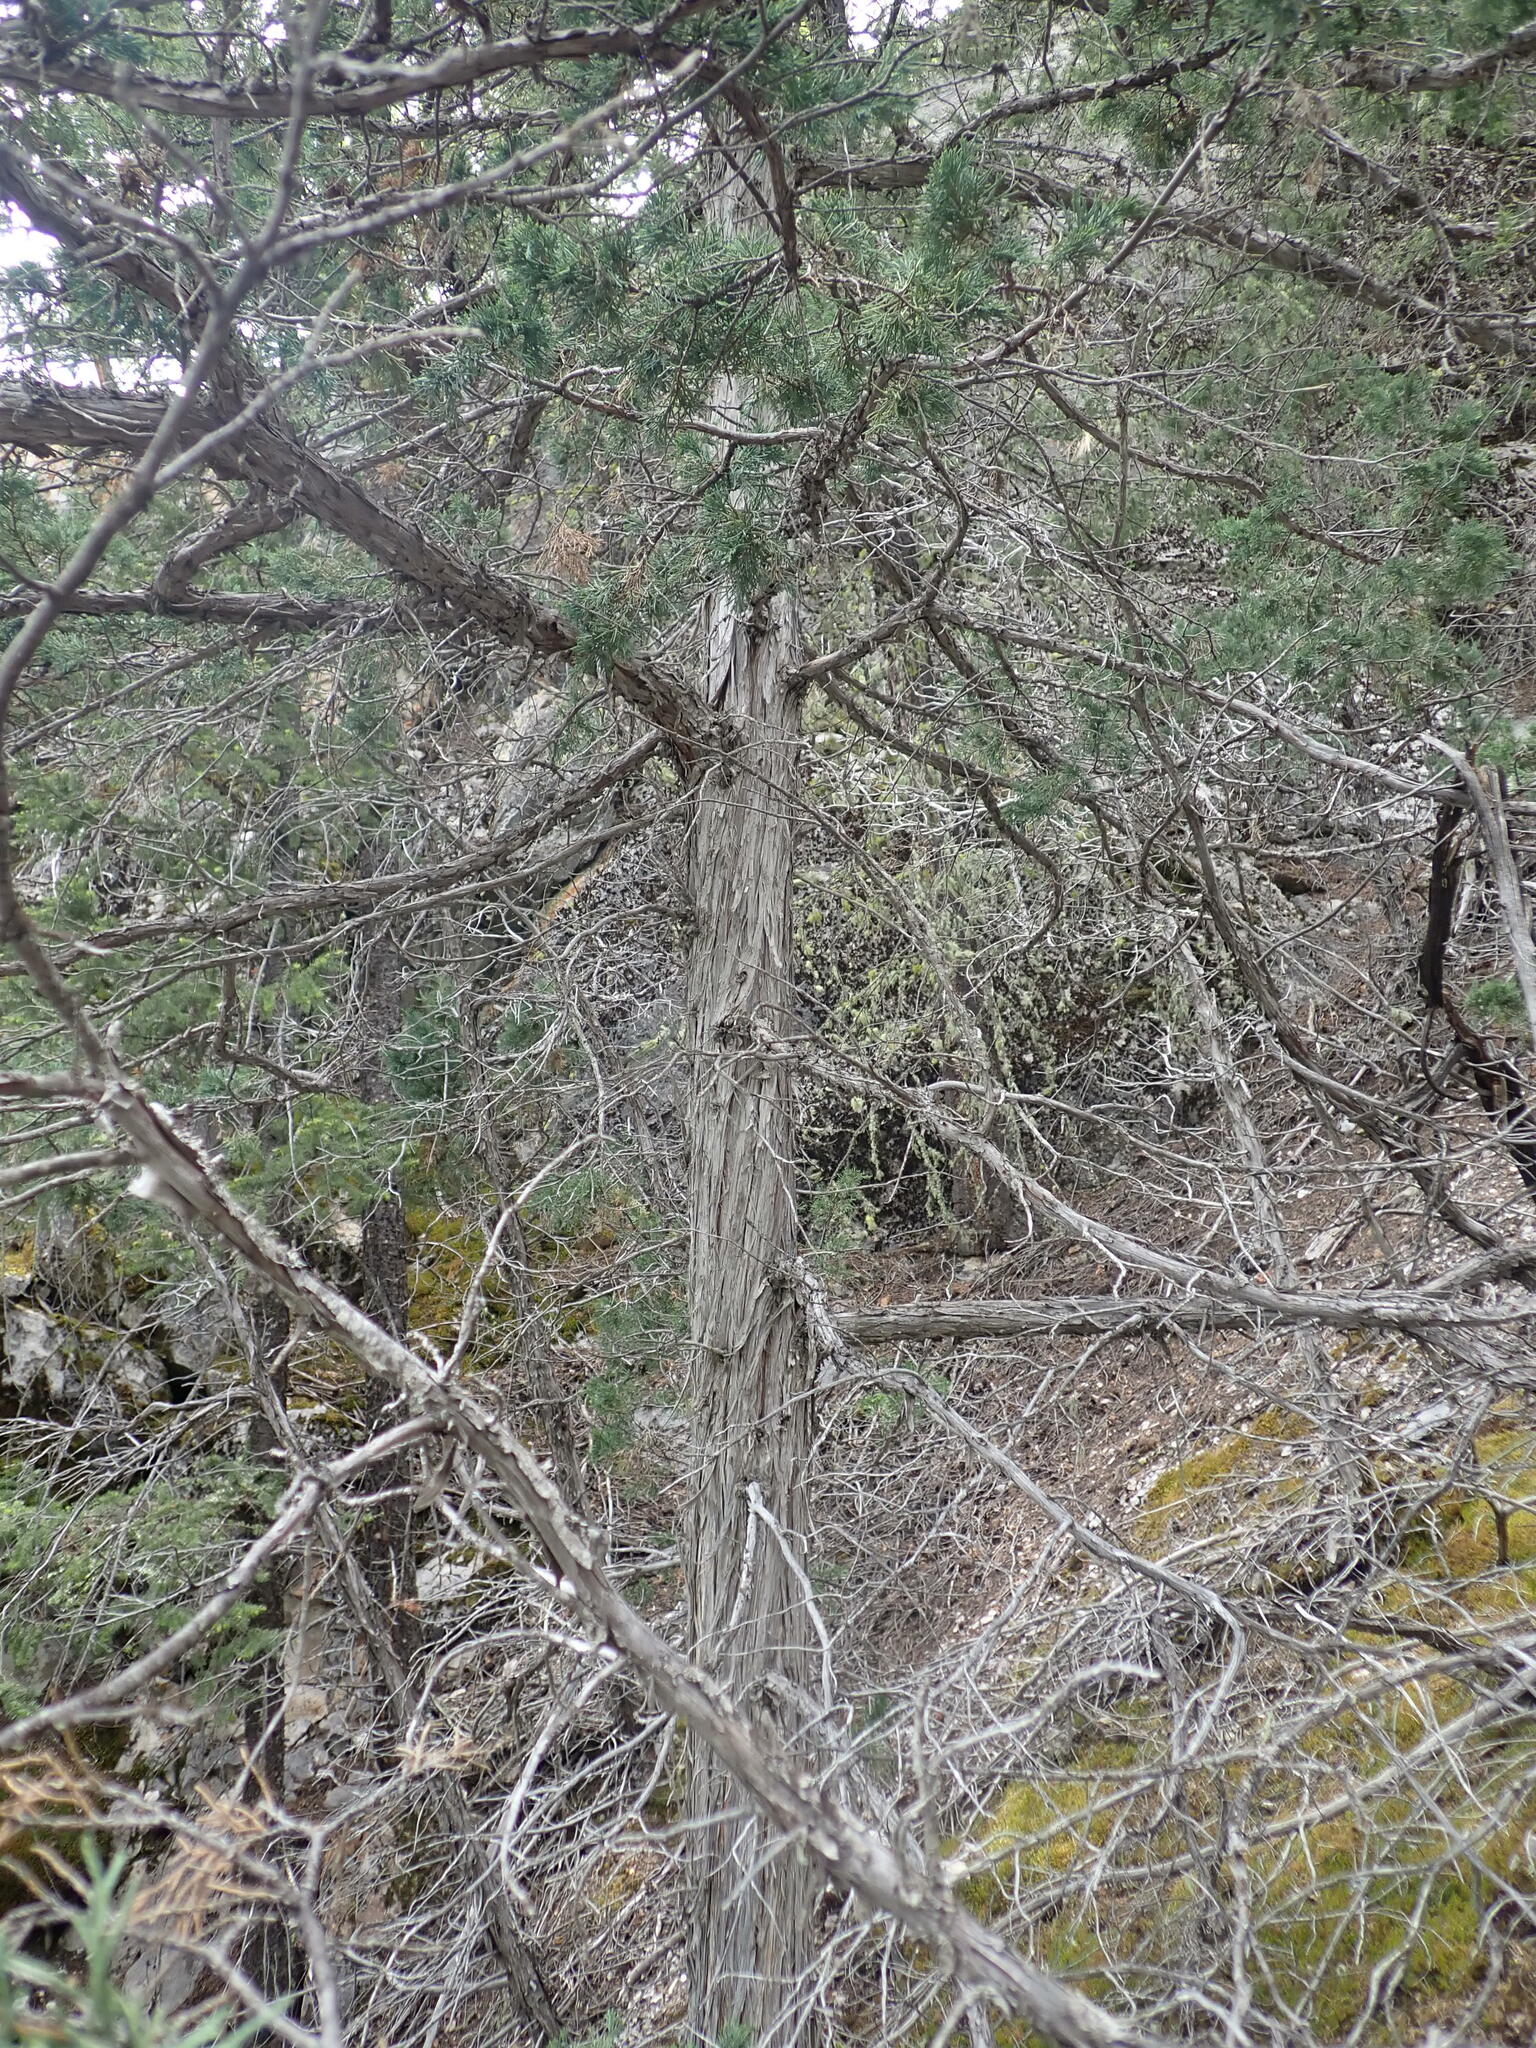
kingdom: Plantae
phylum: Tracheophyta
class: Pinopsida
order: Pinales
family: Cupressaceae
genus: Juniperus
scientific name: Juniperus scopulorum
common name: Rocky mountain juniper
